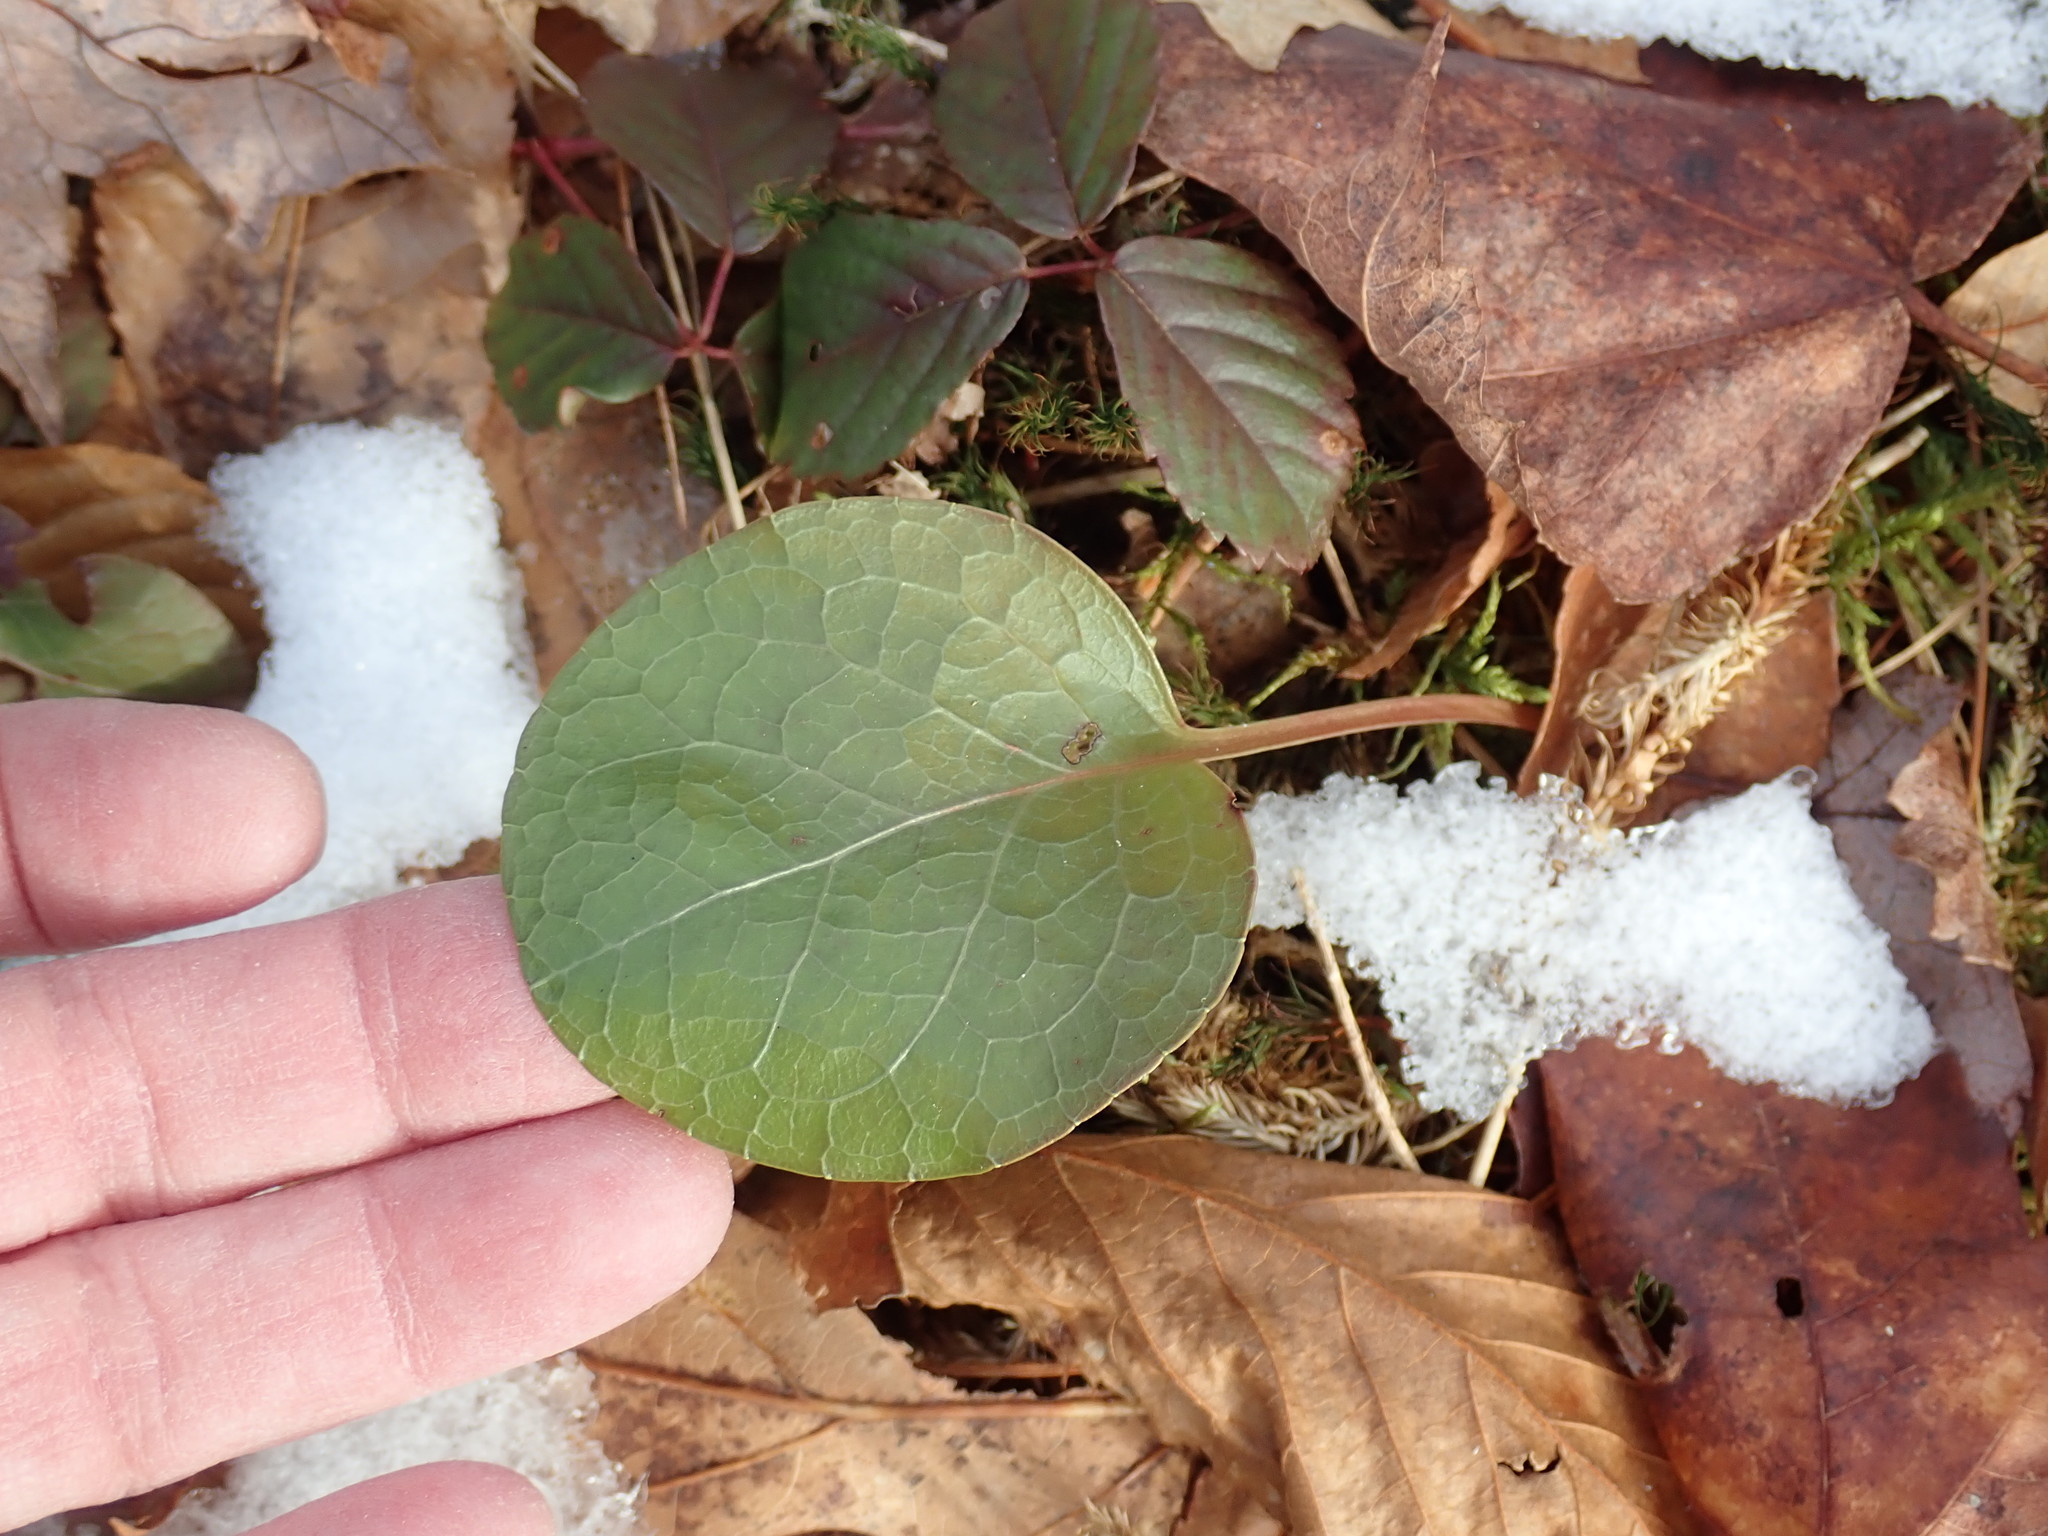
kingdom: Plantae
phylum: Tracheophyta
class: Magnoliopsida
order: Ericales
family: Ericaceae
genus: Pyrola
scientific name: Pyrola americana
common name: American wintergreen
